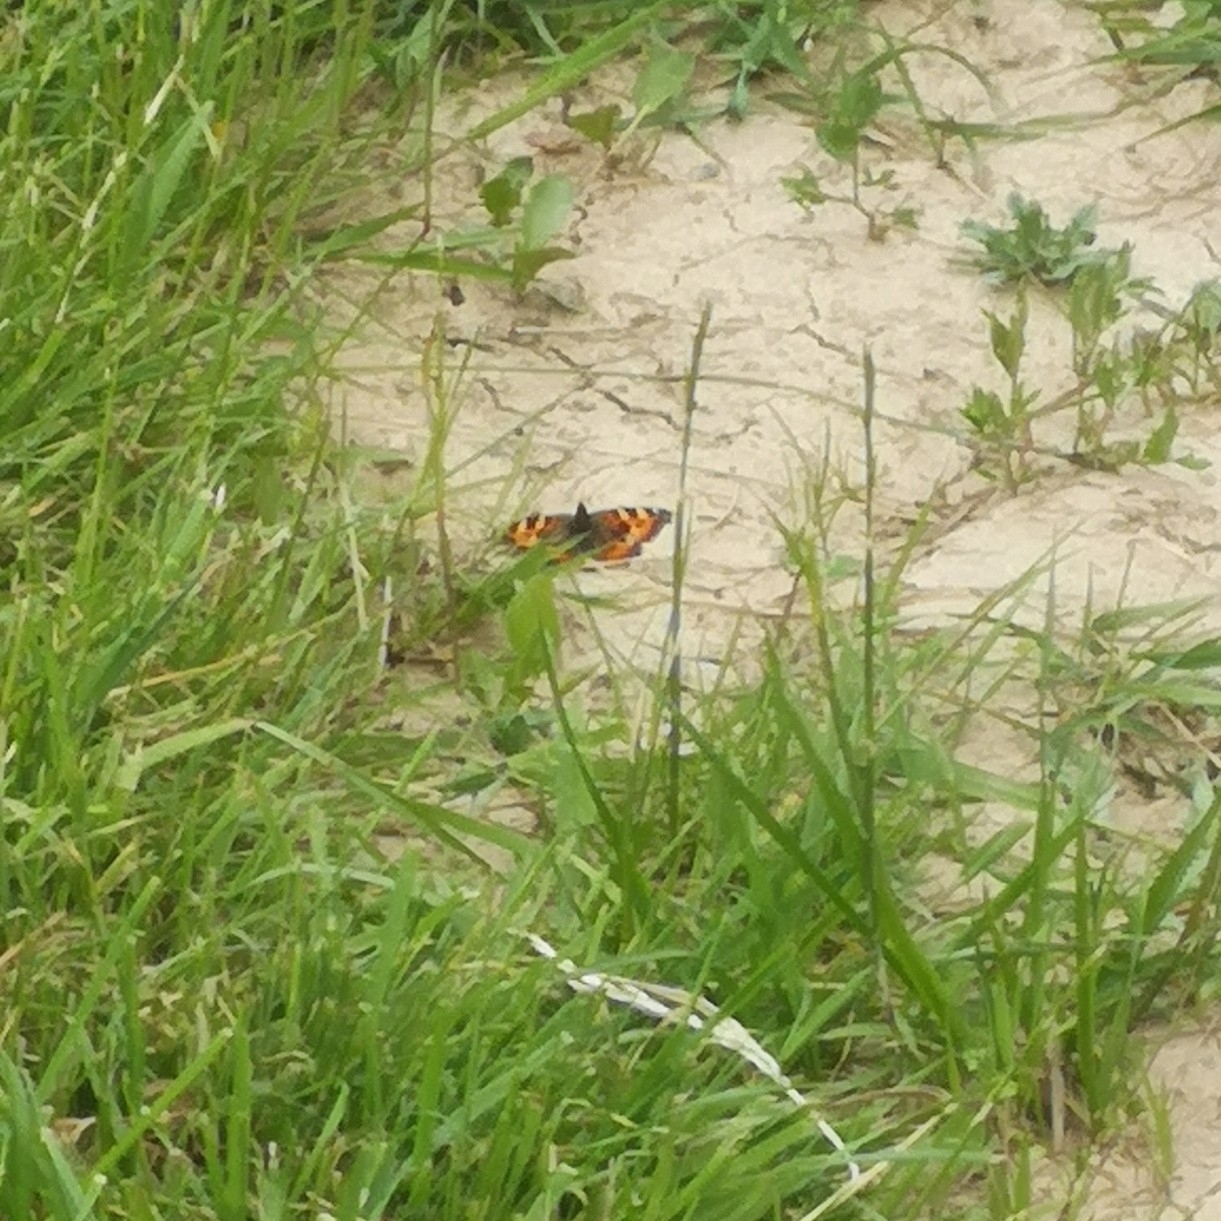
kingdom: Animalia
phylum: Arthropoda
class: Insecta
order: Lepidoptera
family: Nymphalidae
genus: Aglais
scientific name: Aglais urticae
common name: Small tortoiseshell
